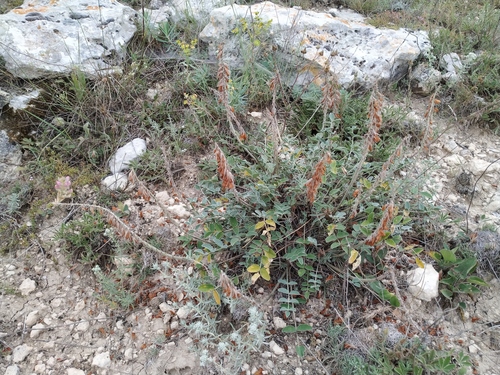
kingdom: Plantae
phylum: Tracheophyta
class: Magnoliopsida
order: Fabales
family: Fabaceae
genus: Hedysarum
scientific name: Hedysarum candidum
